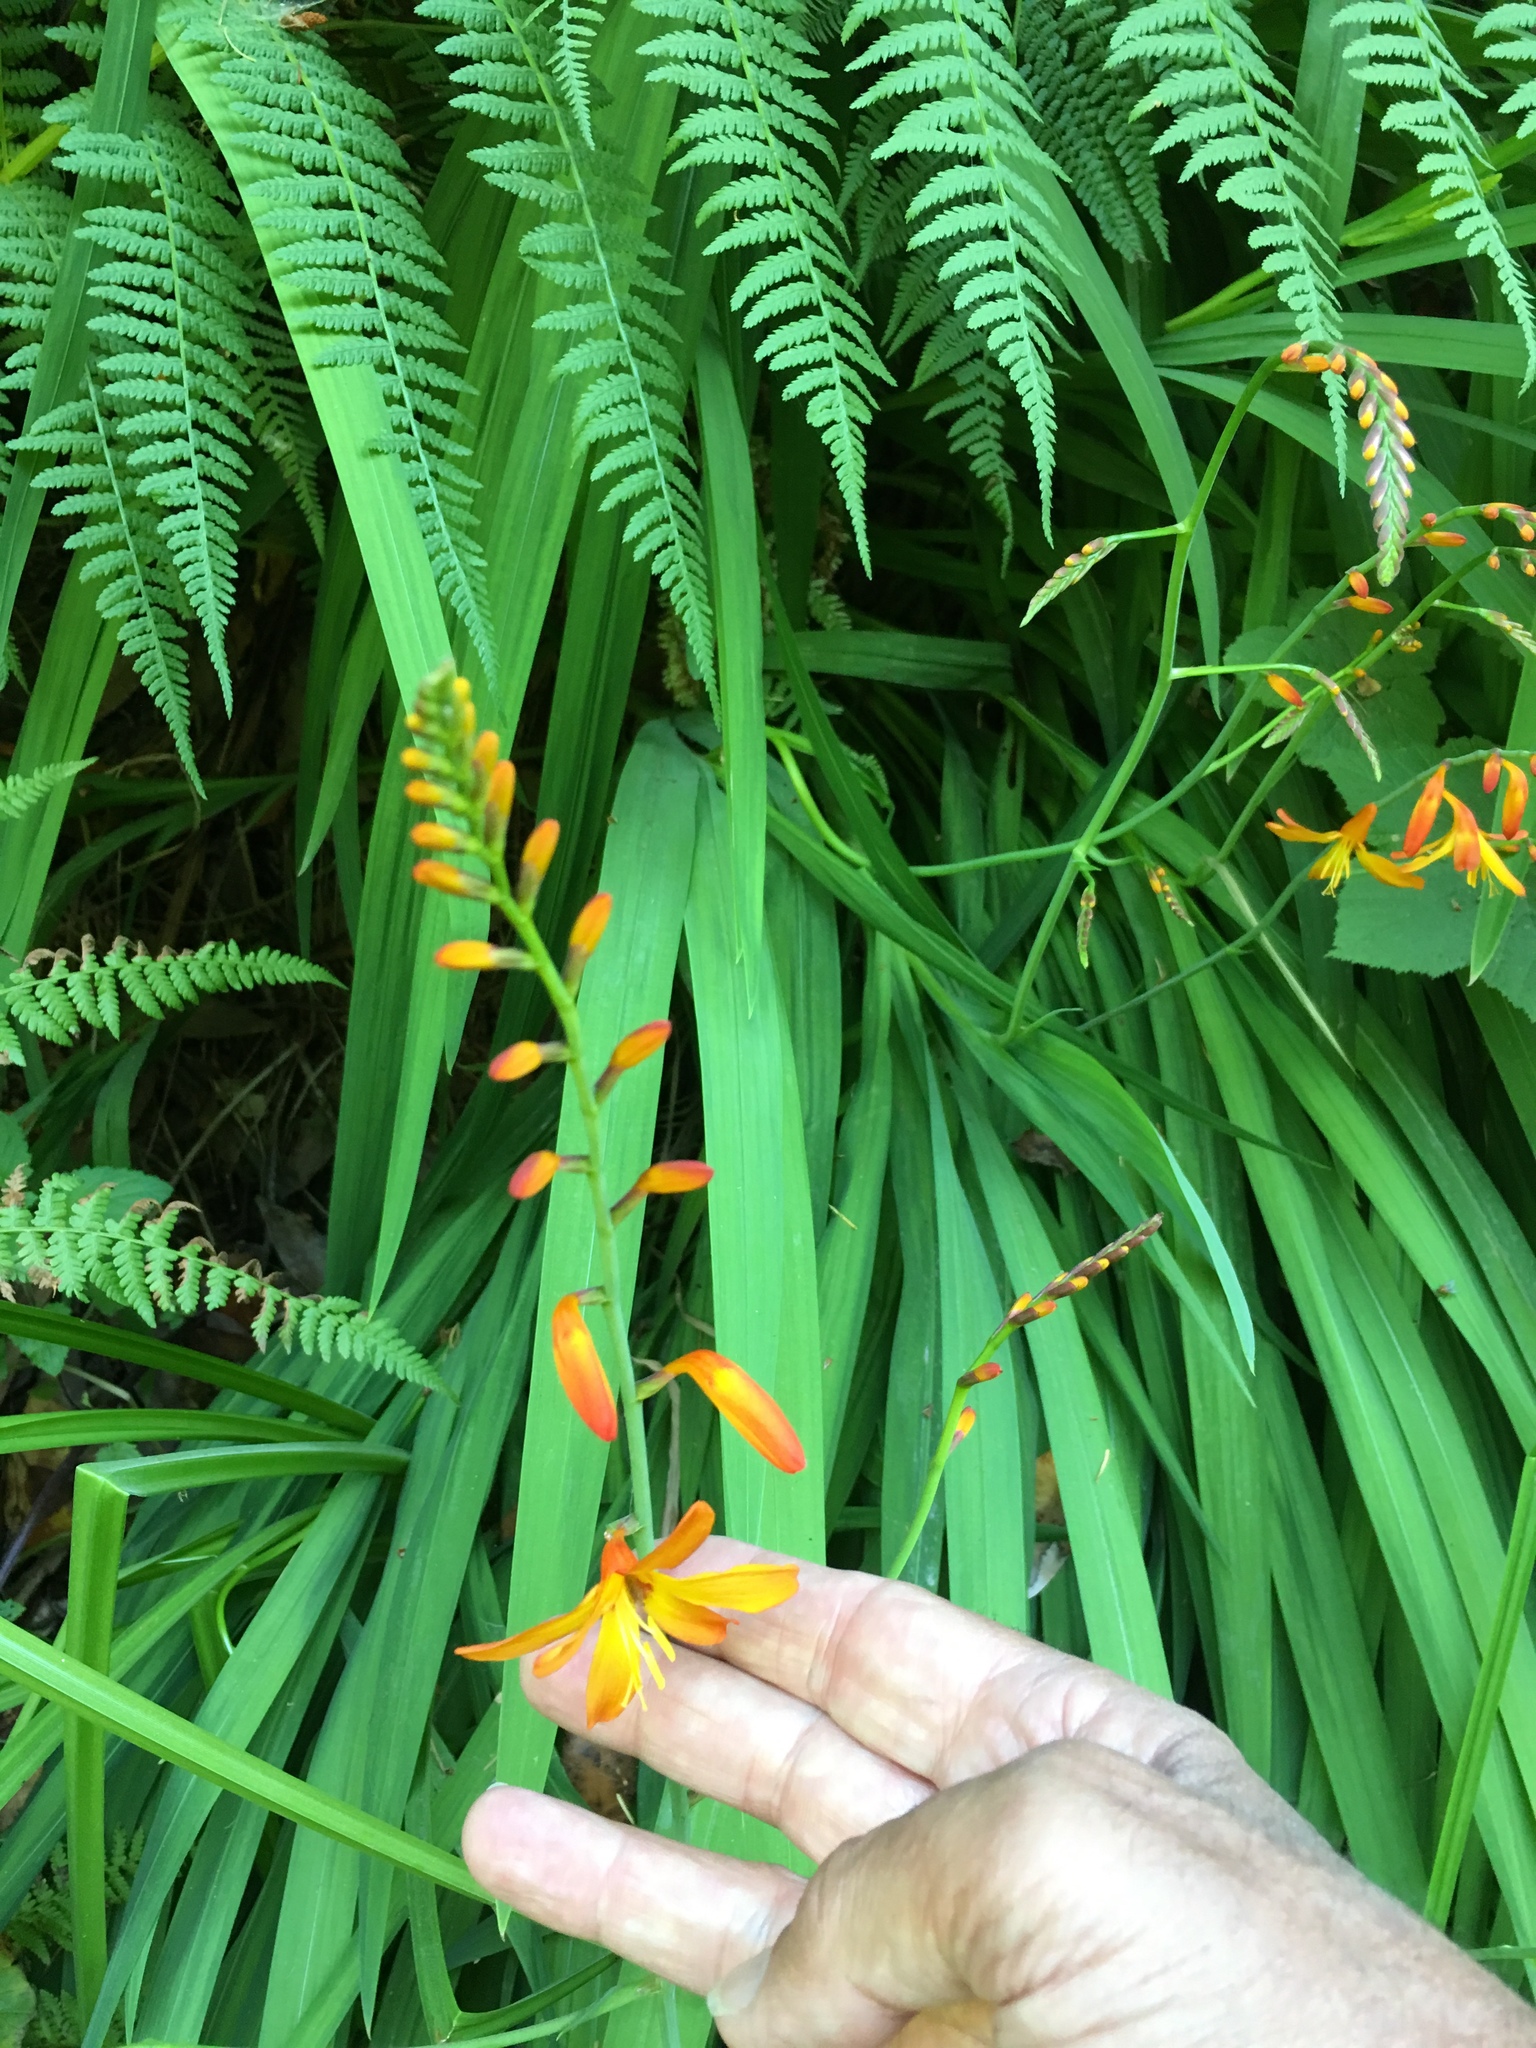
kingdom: Plantae
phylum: Tracheophyta
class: Liliopsida
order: Asparagales
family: Iridaceae
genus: Crocosmia
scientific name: Crocosmia crocosmiiflora
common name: Montbretia
